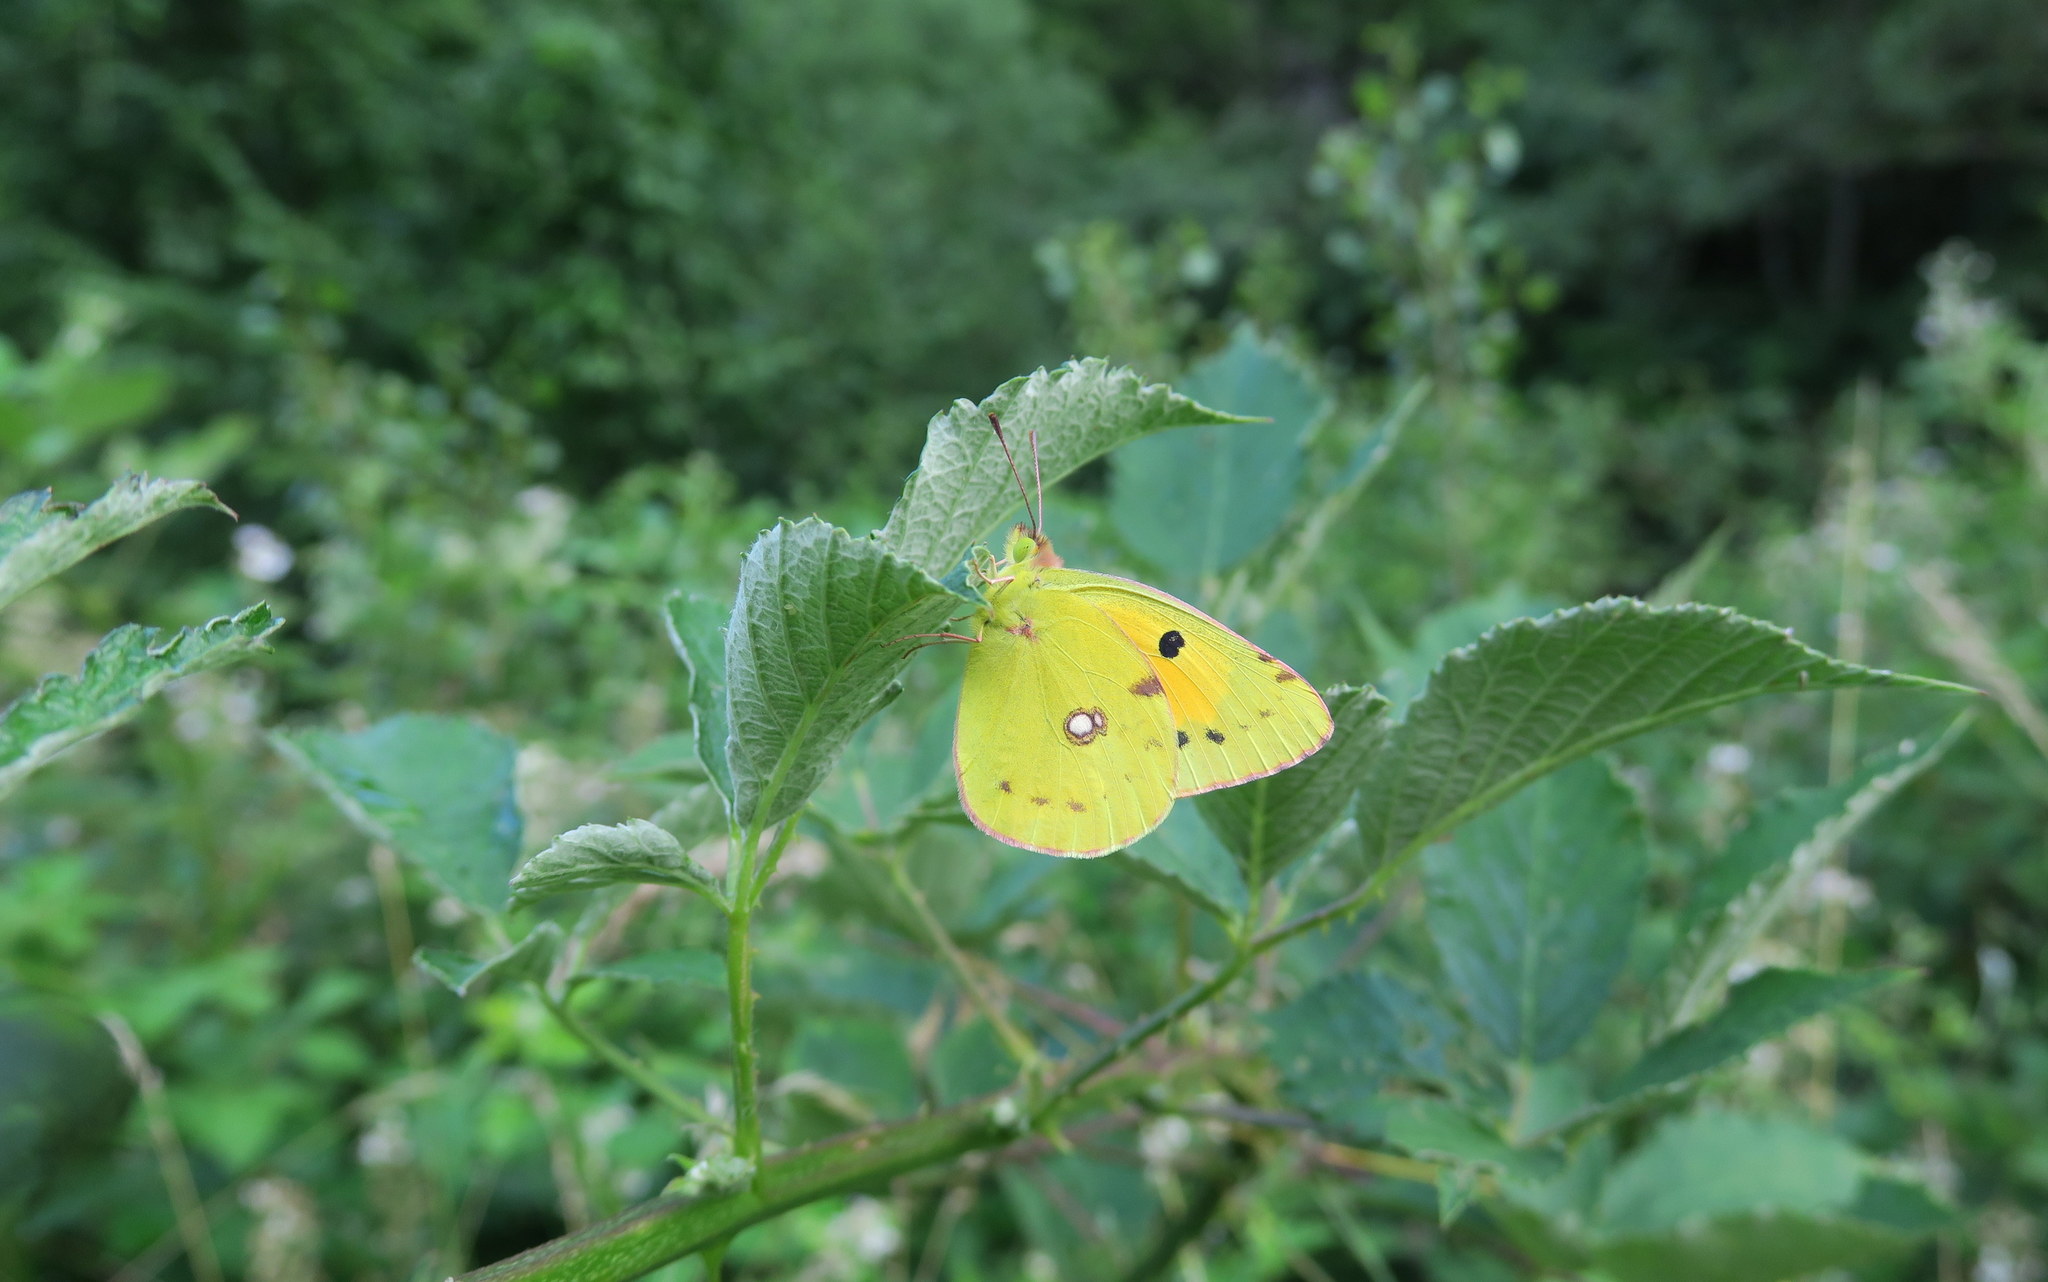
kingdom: Animalia
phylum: Arthropoda
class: Insecta
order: Lepidoptera
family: Pieridae
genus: Colias
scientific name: Colias croceus
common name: Clouded yellow
